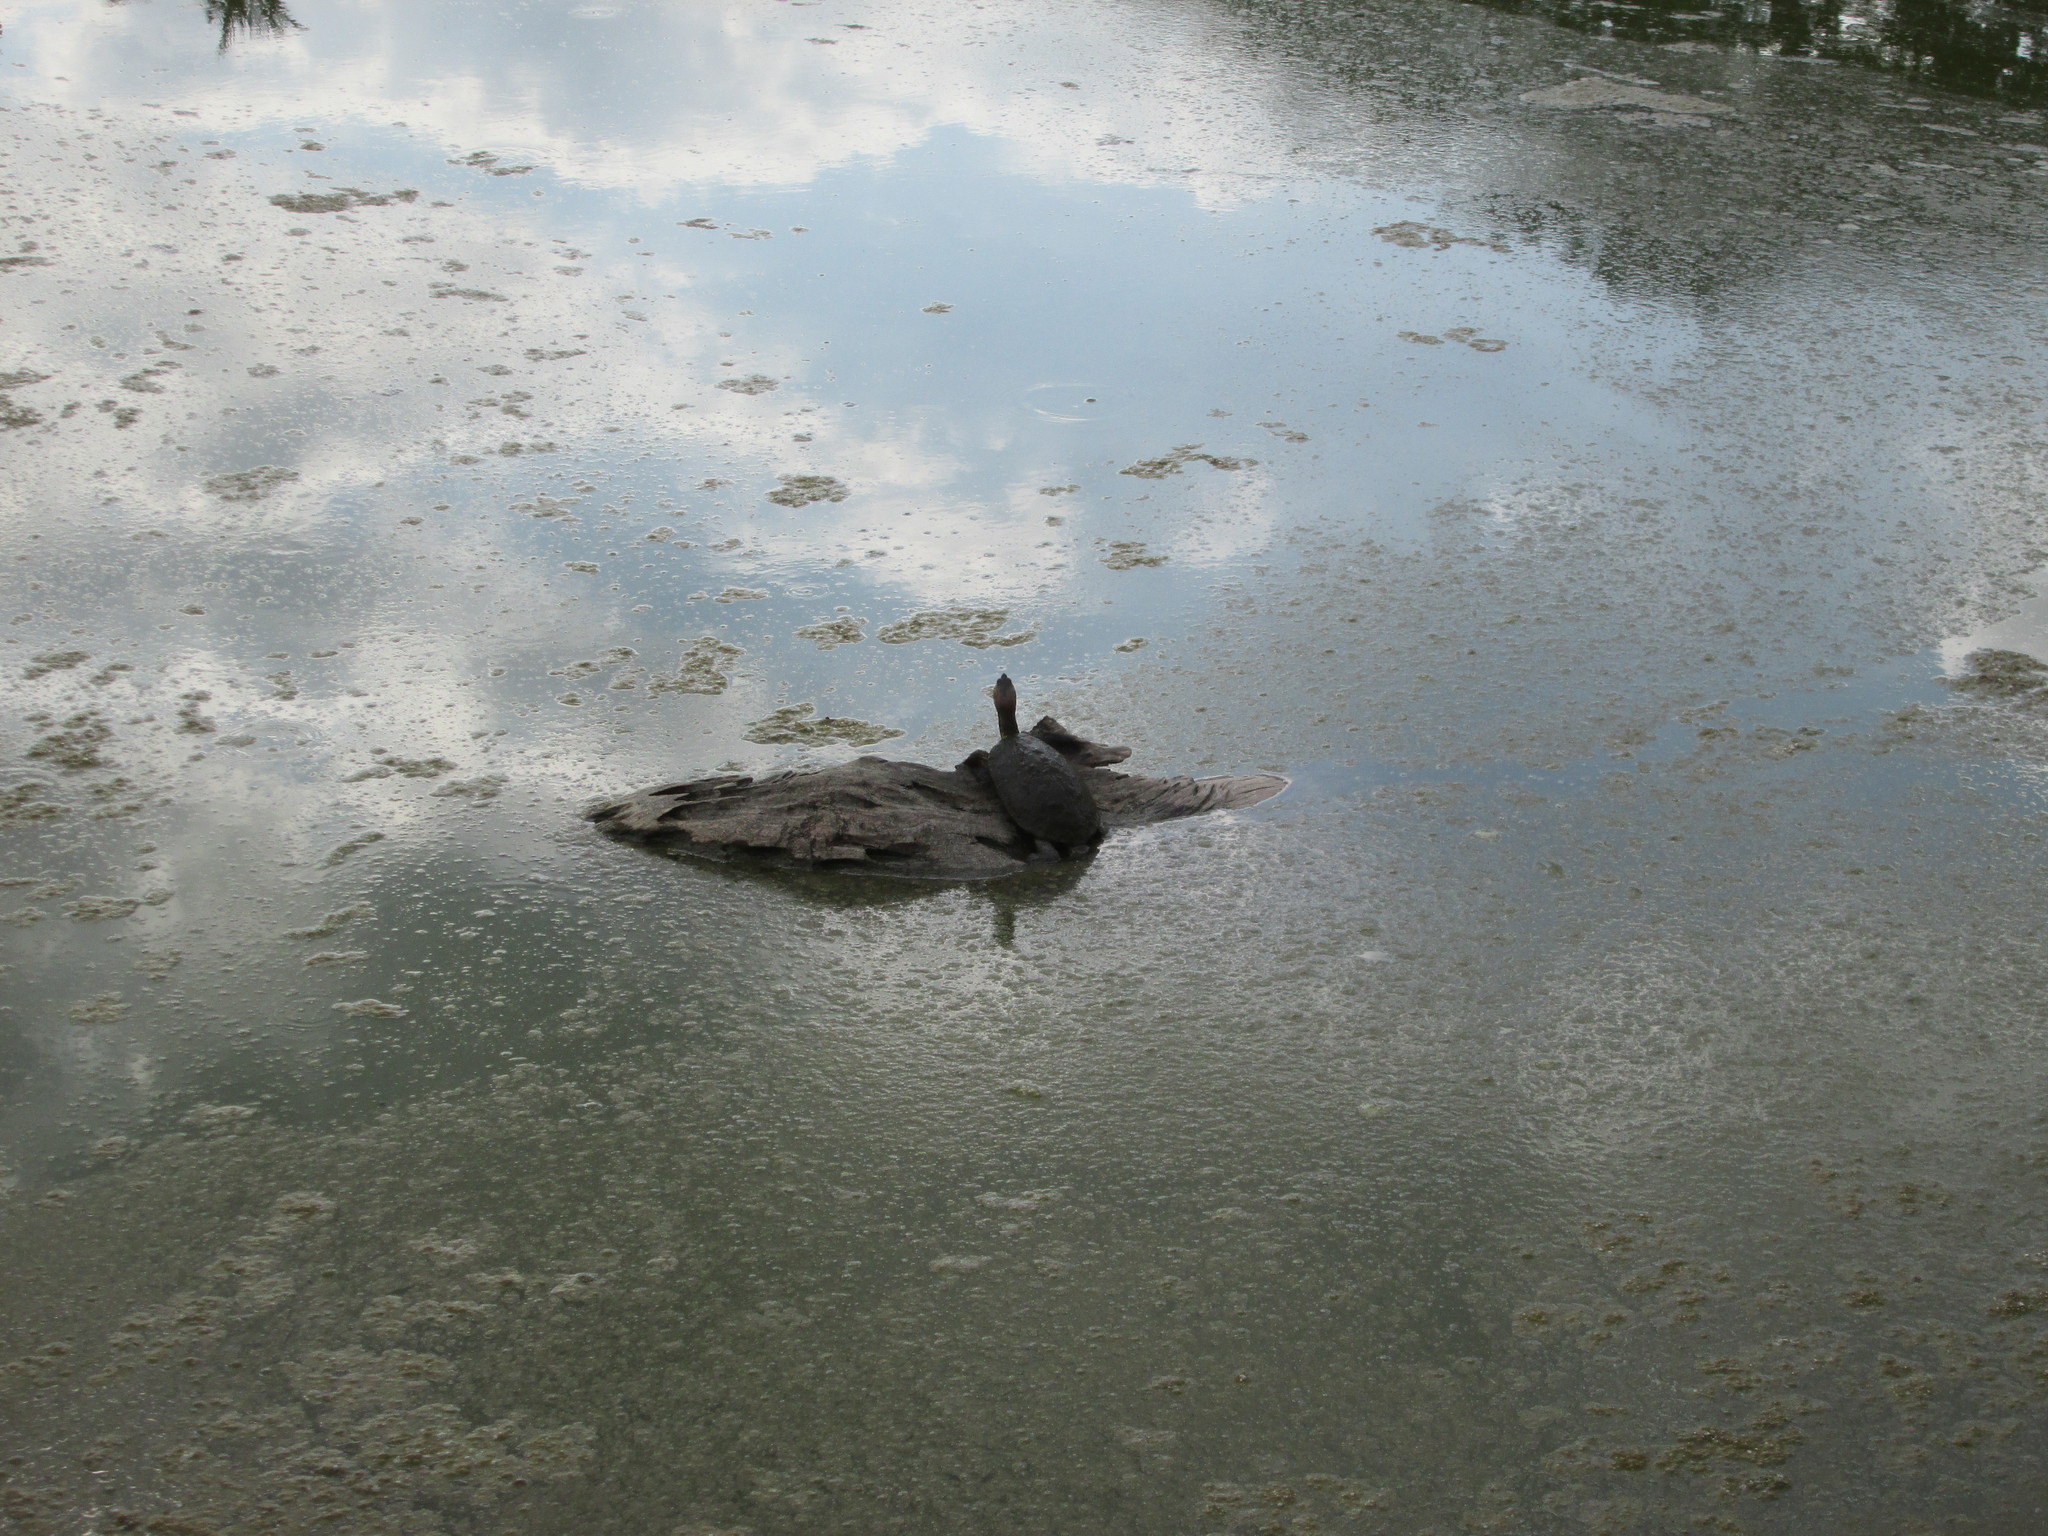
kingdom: Animalia
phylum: Chordata
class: Testudines
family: Emydidae
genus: Trachemys
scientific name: Trachemys callirostris
